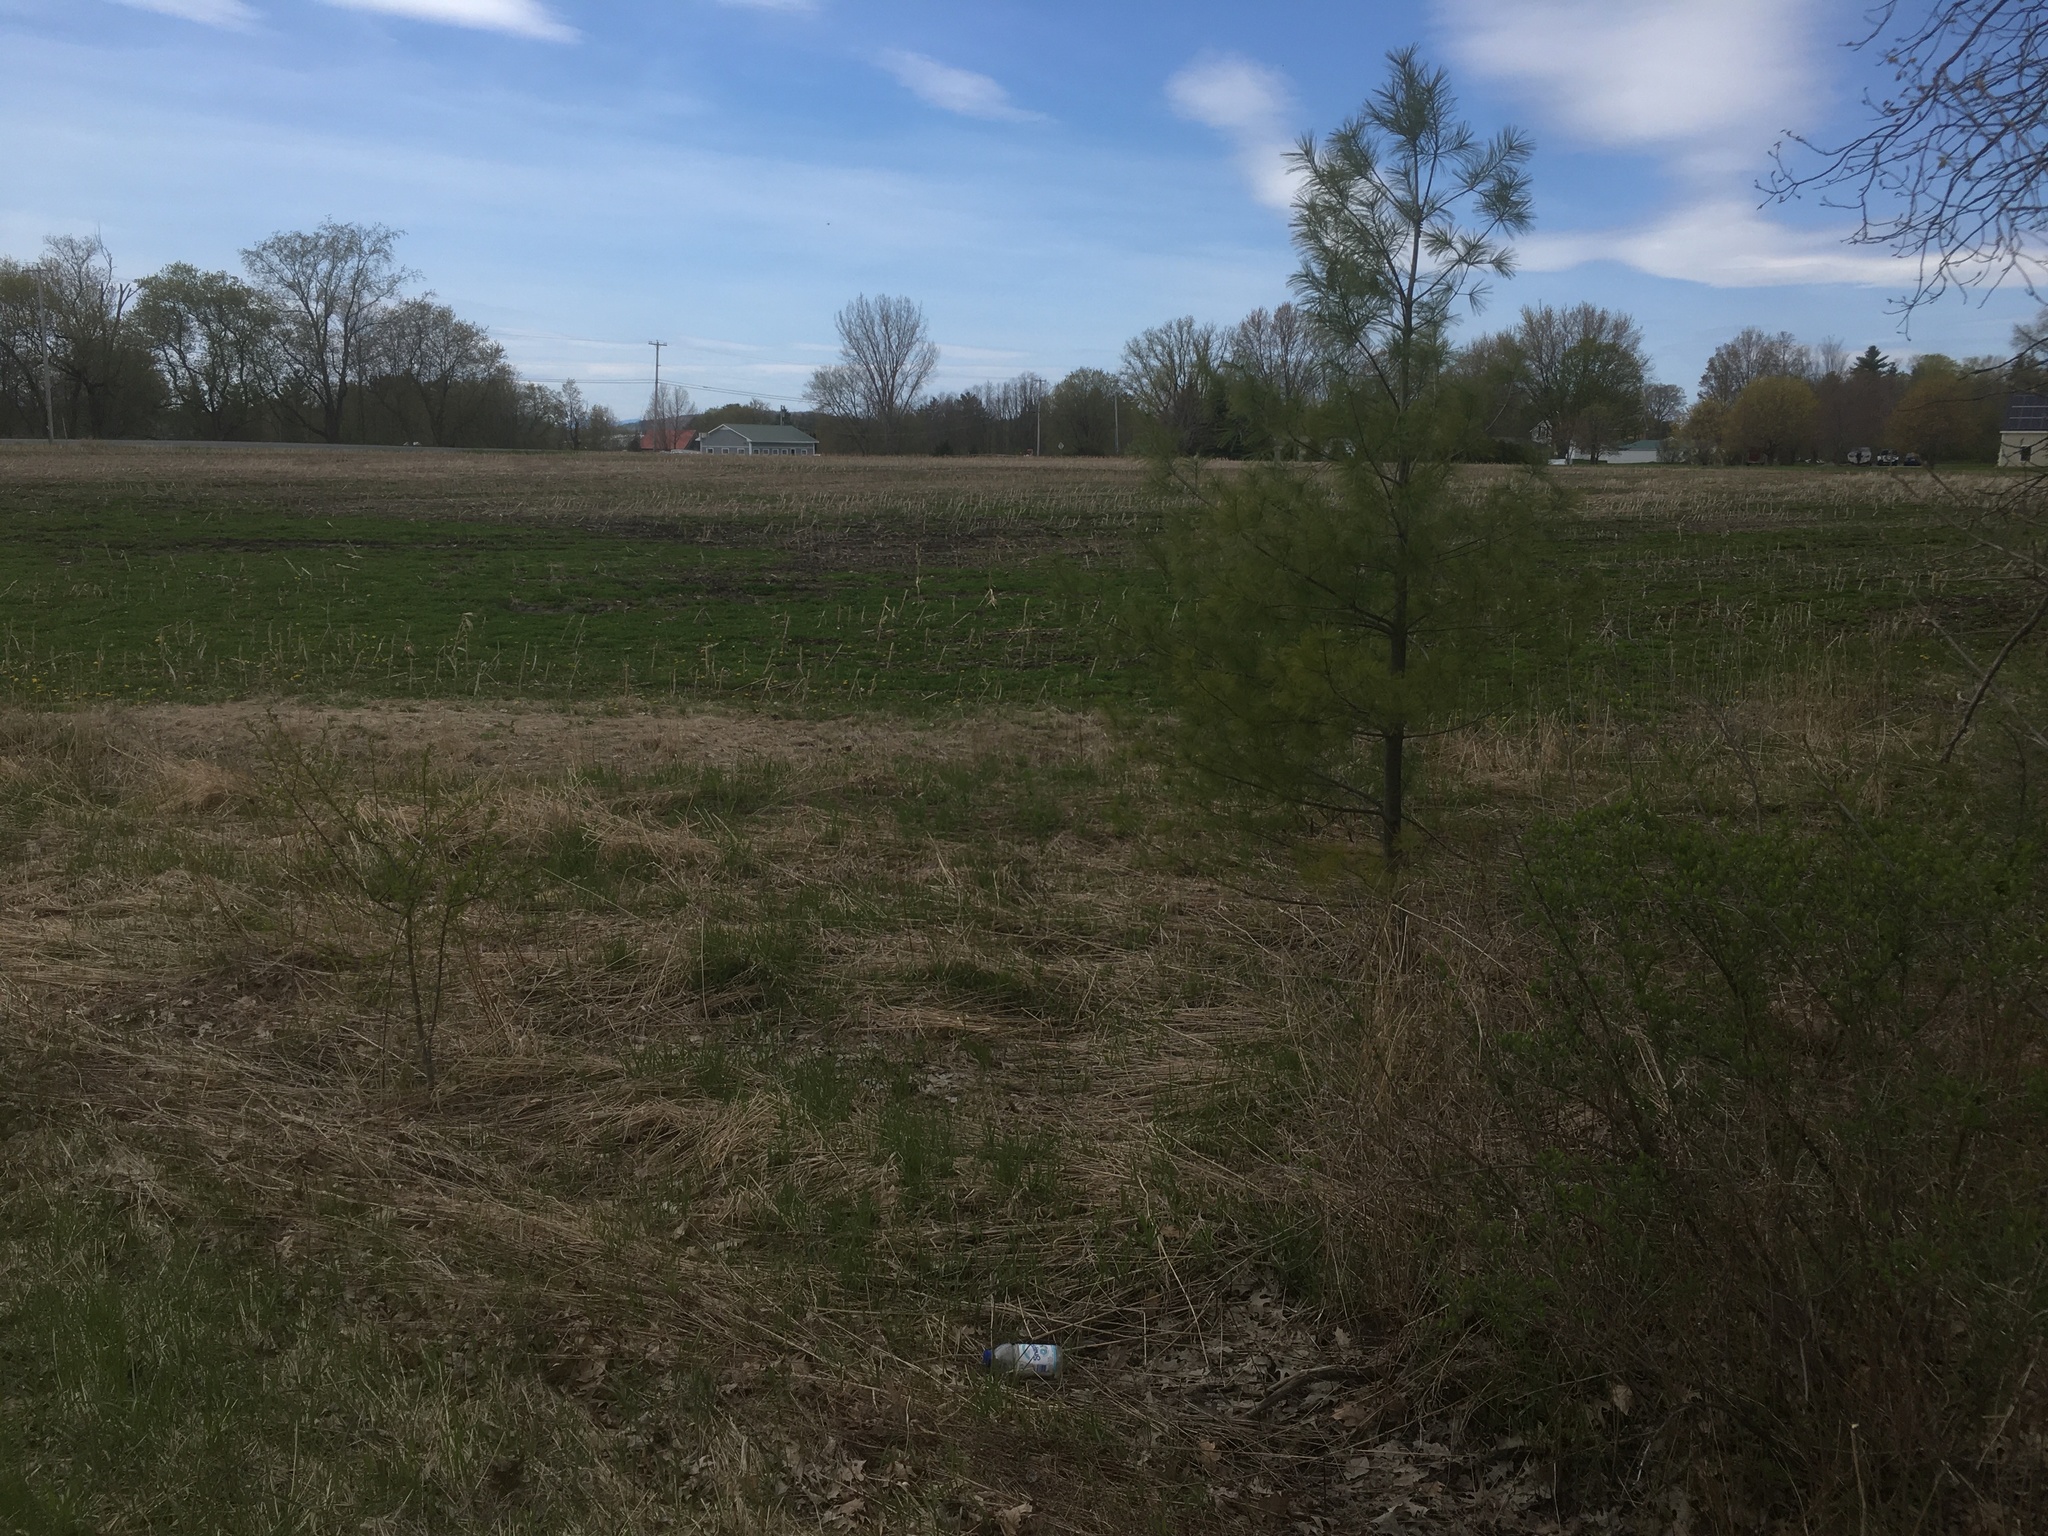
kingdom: Plantae
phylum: Tracheophyta
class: Pinopsida
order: Pinales
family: Pinaceae
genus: Pinus
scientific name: Pinus strobus
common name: Weymouth pine
